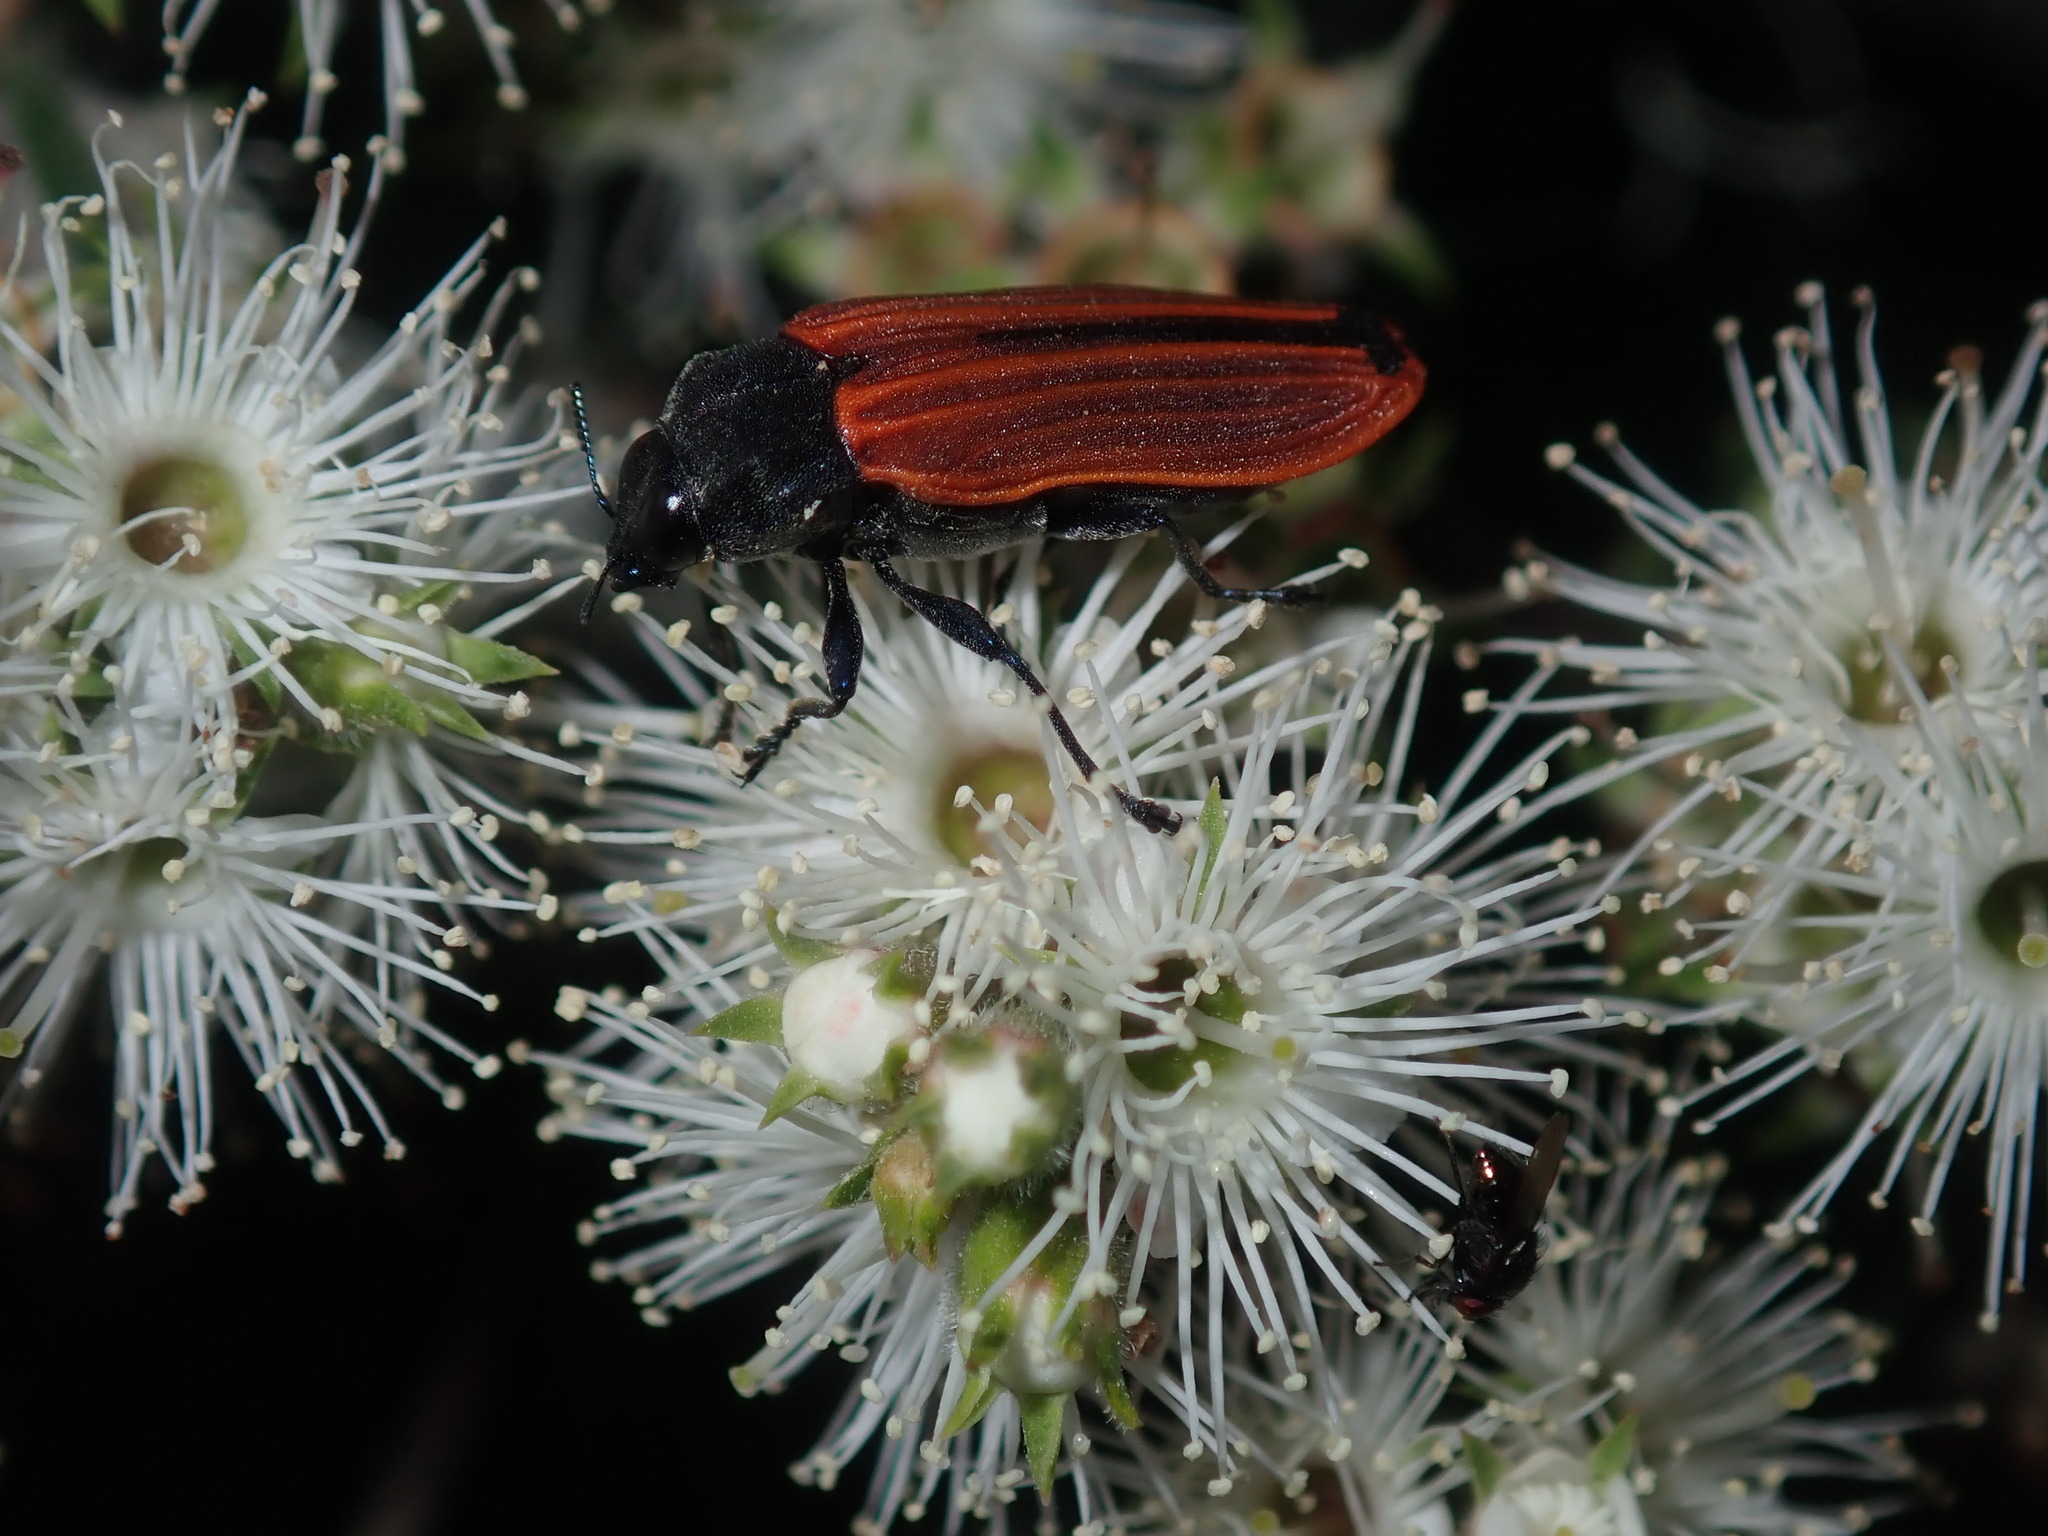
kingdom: Animalia
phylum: Arthropoda
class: Insecta
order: Coleoptera
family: Buprestidae
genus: Castiarina
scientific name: Castiarina erythroptera
